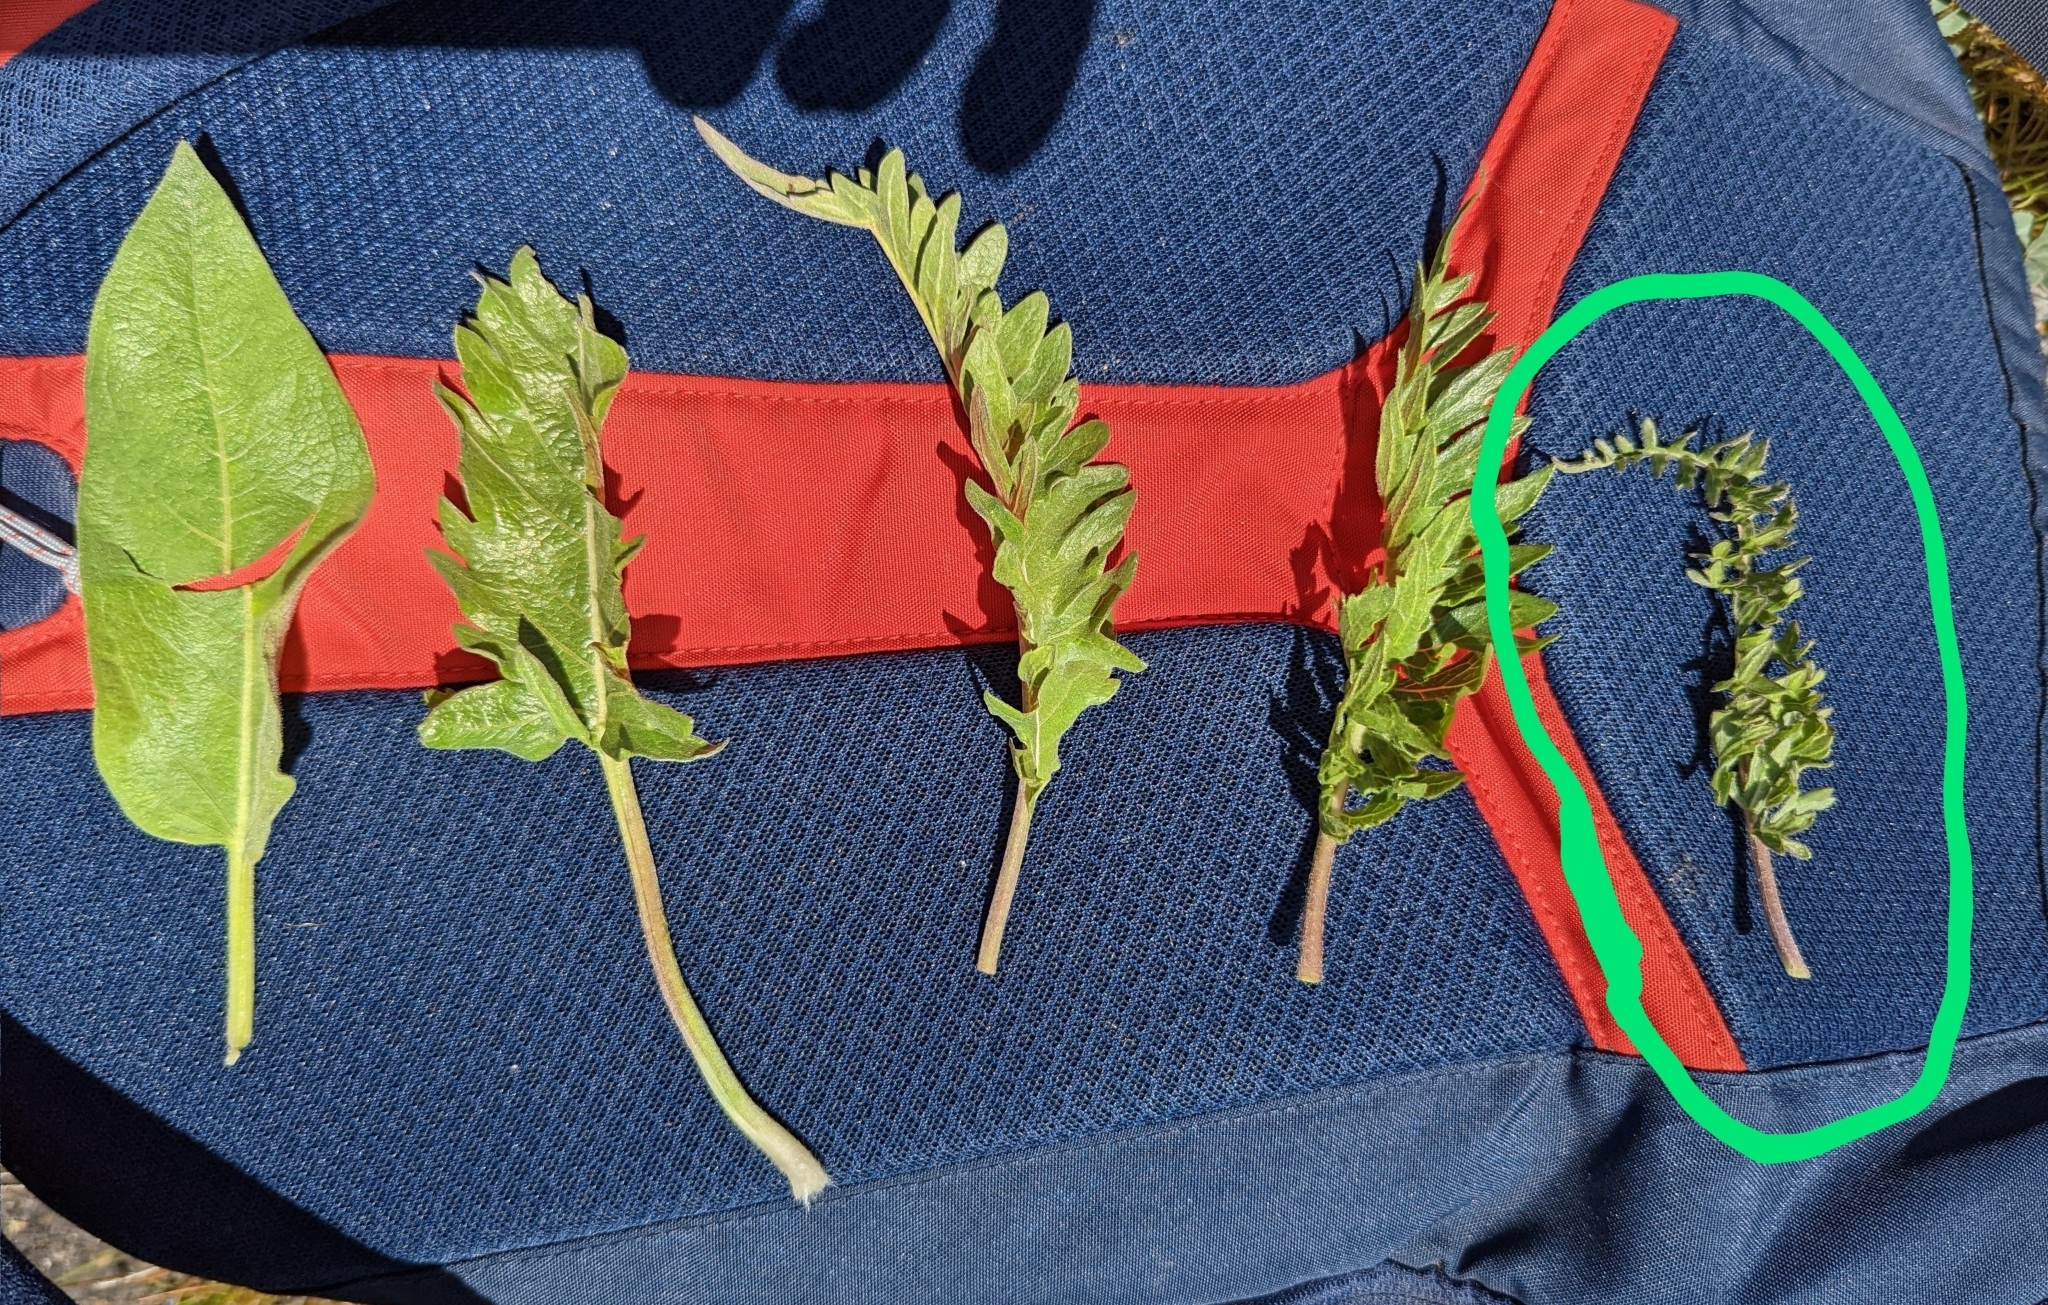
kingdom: Plantae
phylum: Tracheophyta
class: Magnoliopsida
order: Asterales
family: Asteraceae
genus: Balsamorhiza
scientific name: Balsamorhiza hookeri
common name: Hooker's balsamroot
